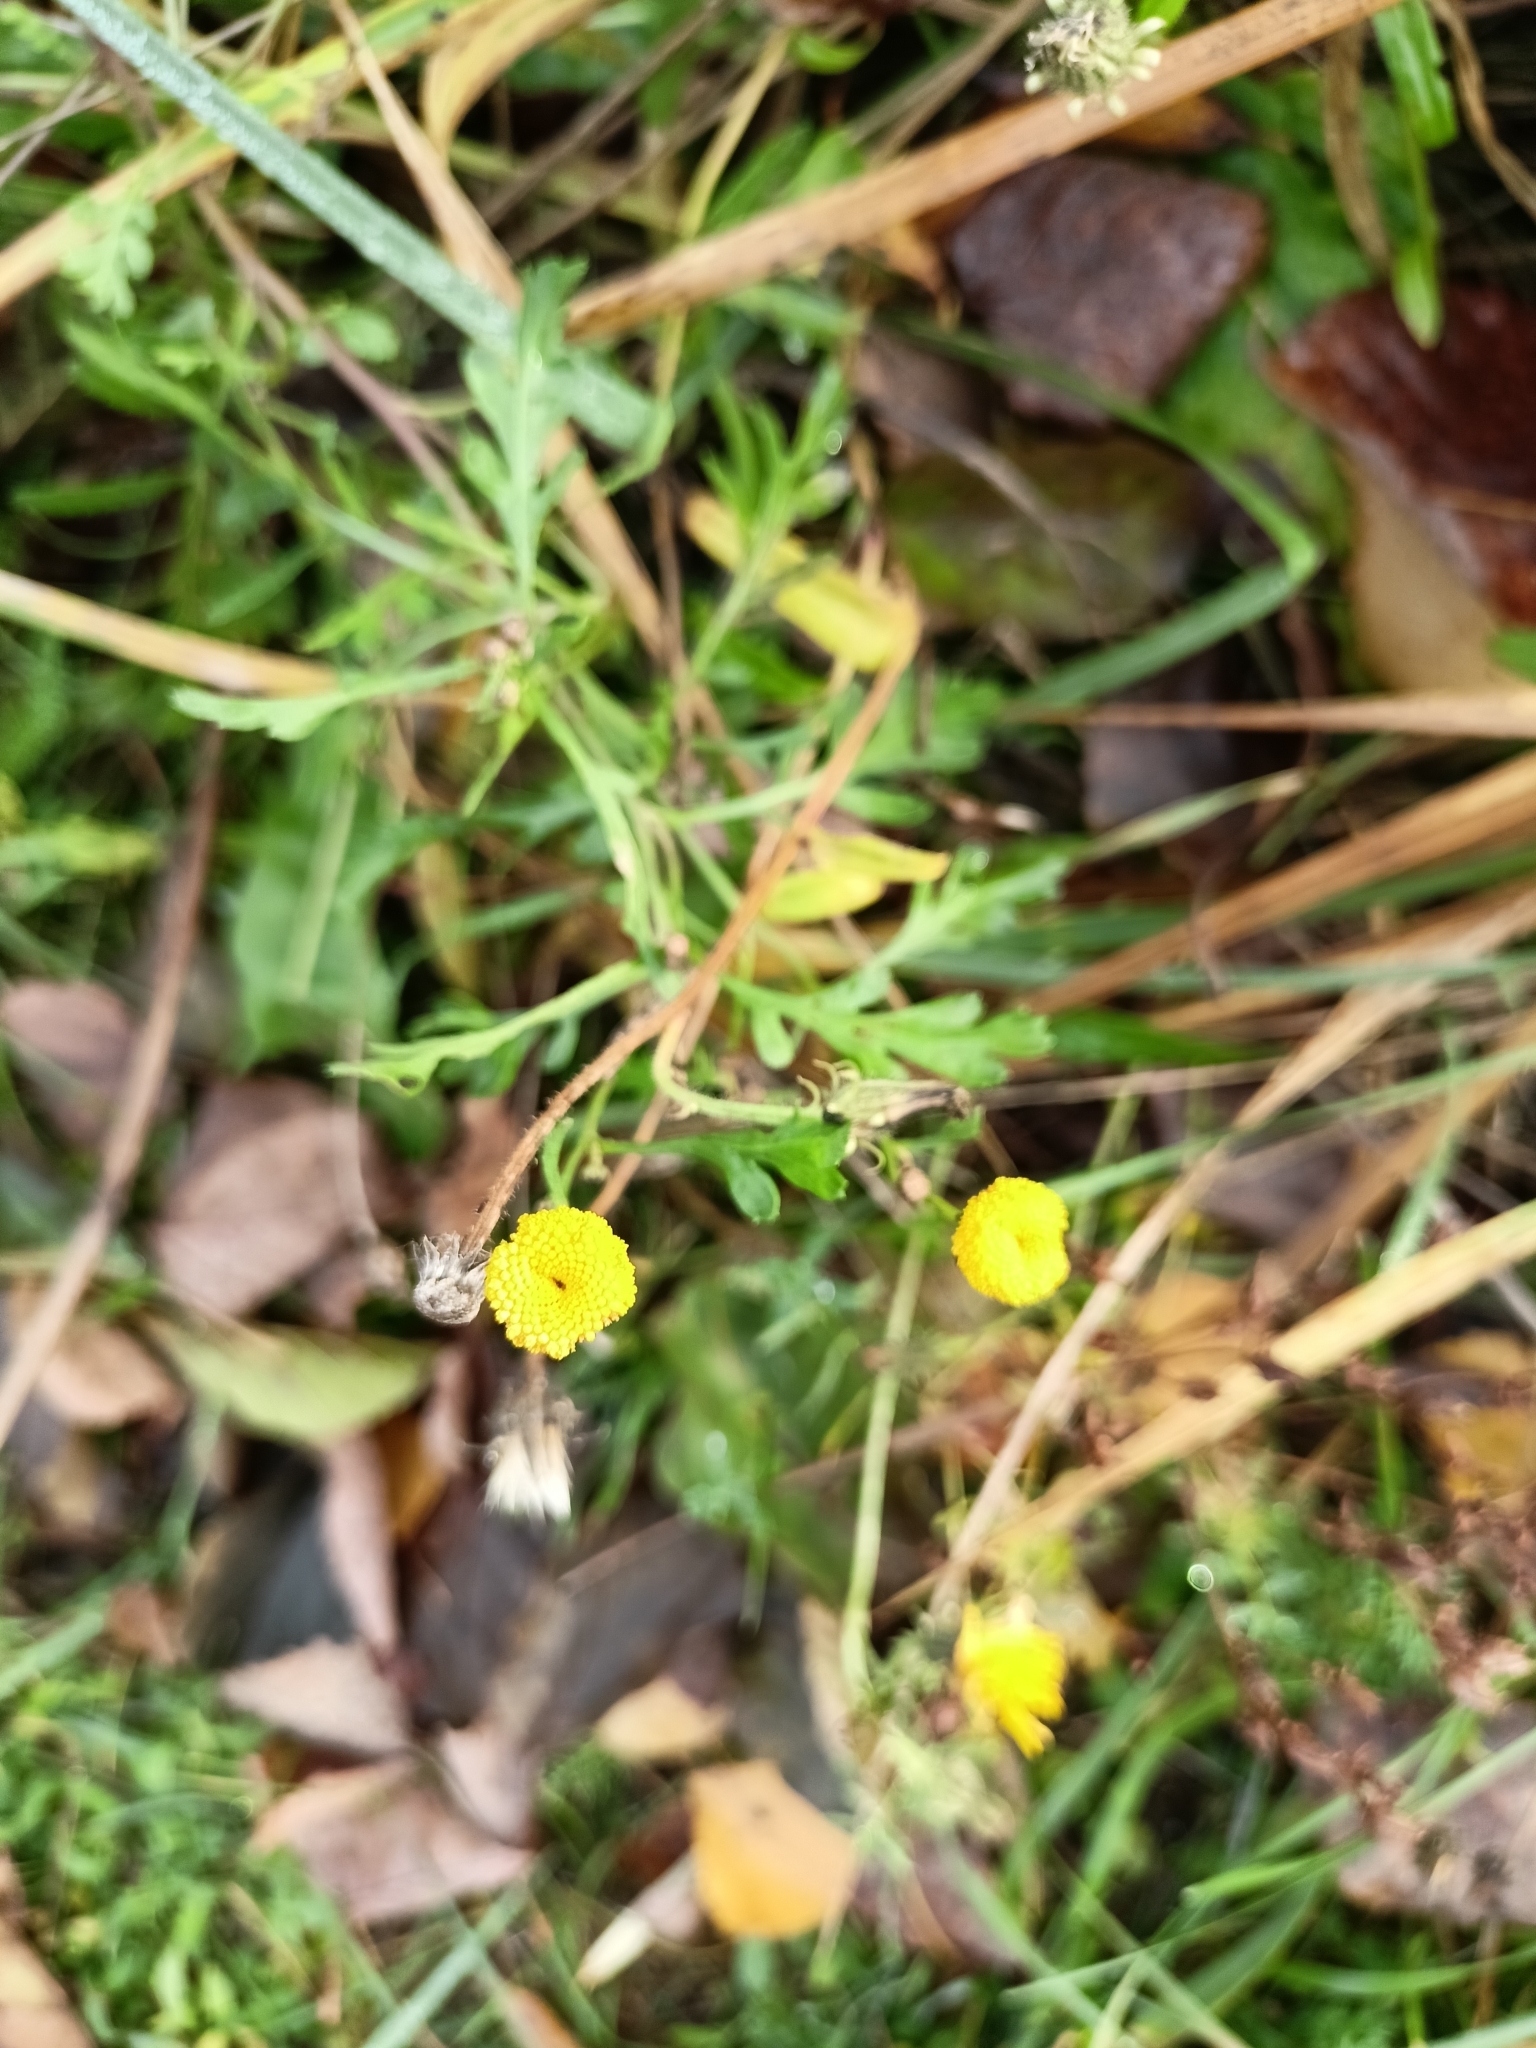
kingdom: Plantae
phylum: Tracheophyta
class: Magnoliopsida
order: Asterales
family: Asteraceae
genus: Tanacetum
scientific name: Tanacetum vulgare
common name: Common tansy
